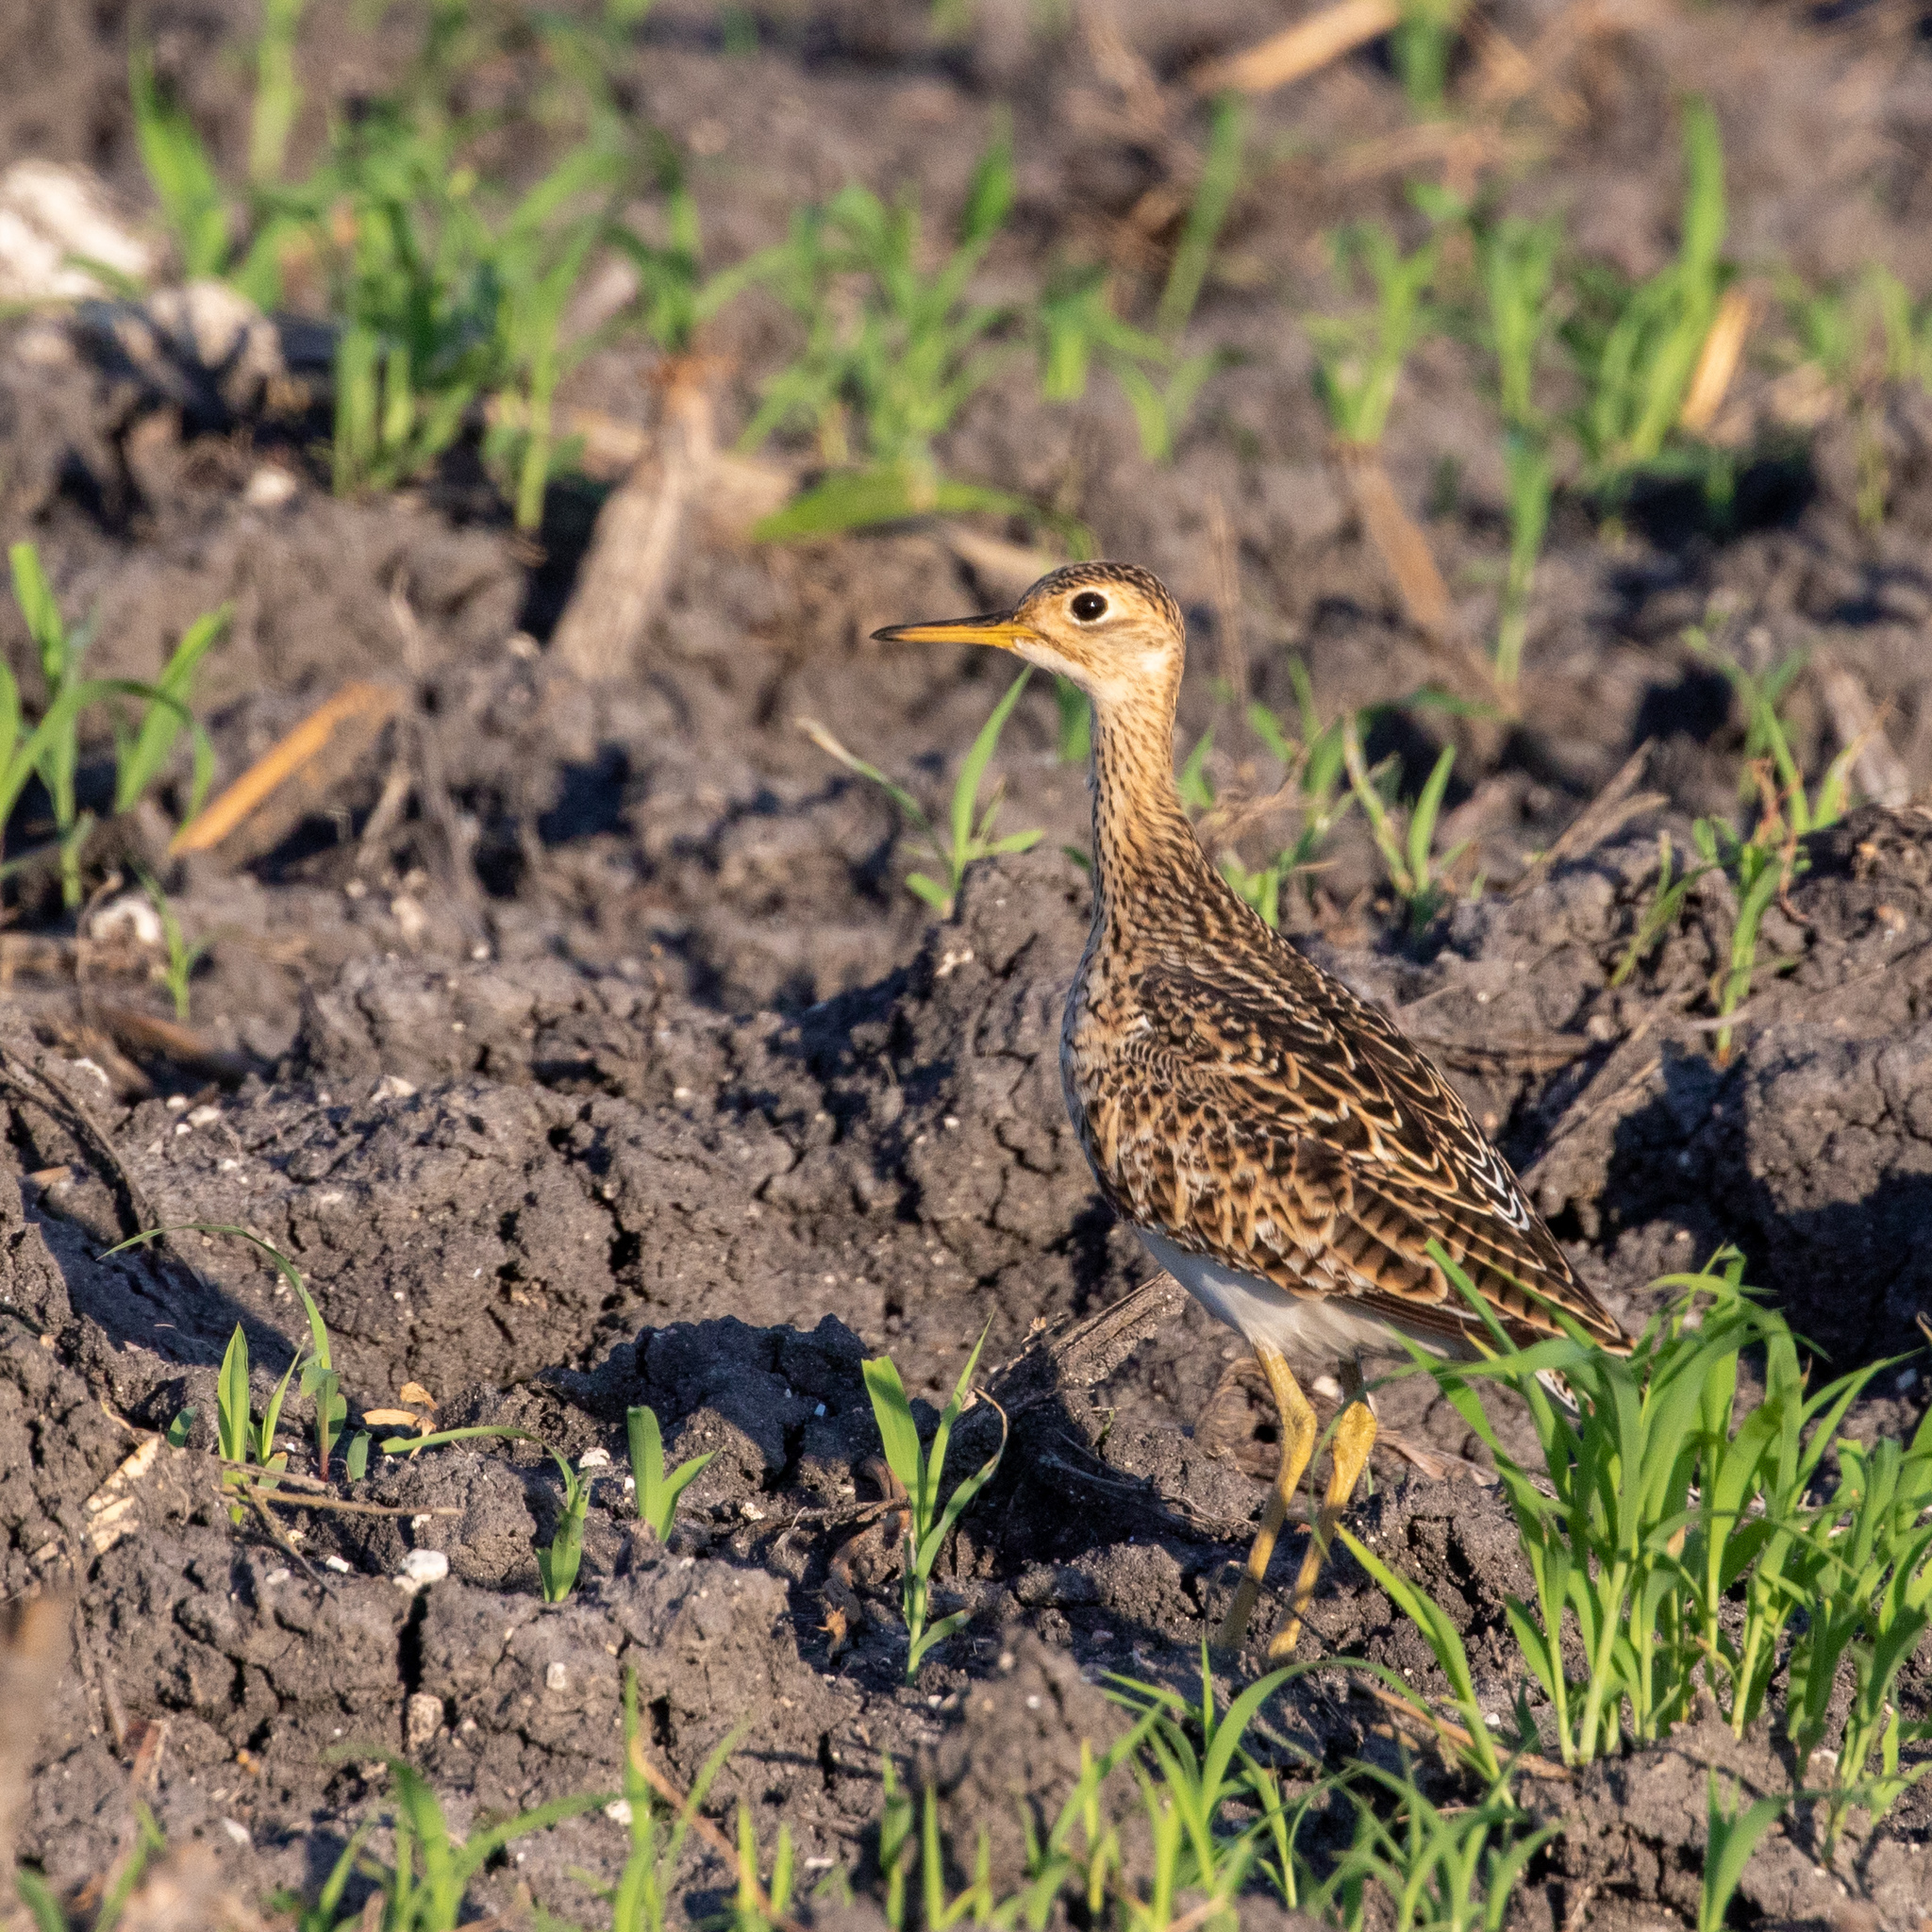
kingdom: Animalia
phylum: Chordata
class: Aves
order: Charadriiformes
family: Scolopacidae
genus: Bartramia
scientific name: Bartramia longicauda
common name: Upland sandpiper
